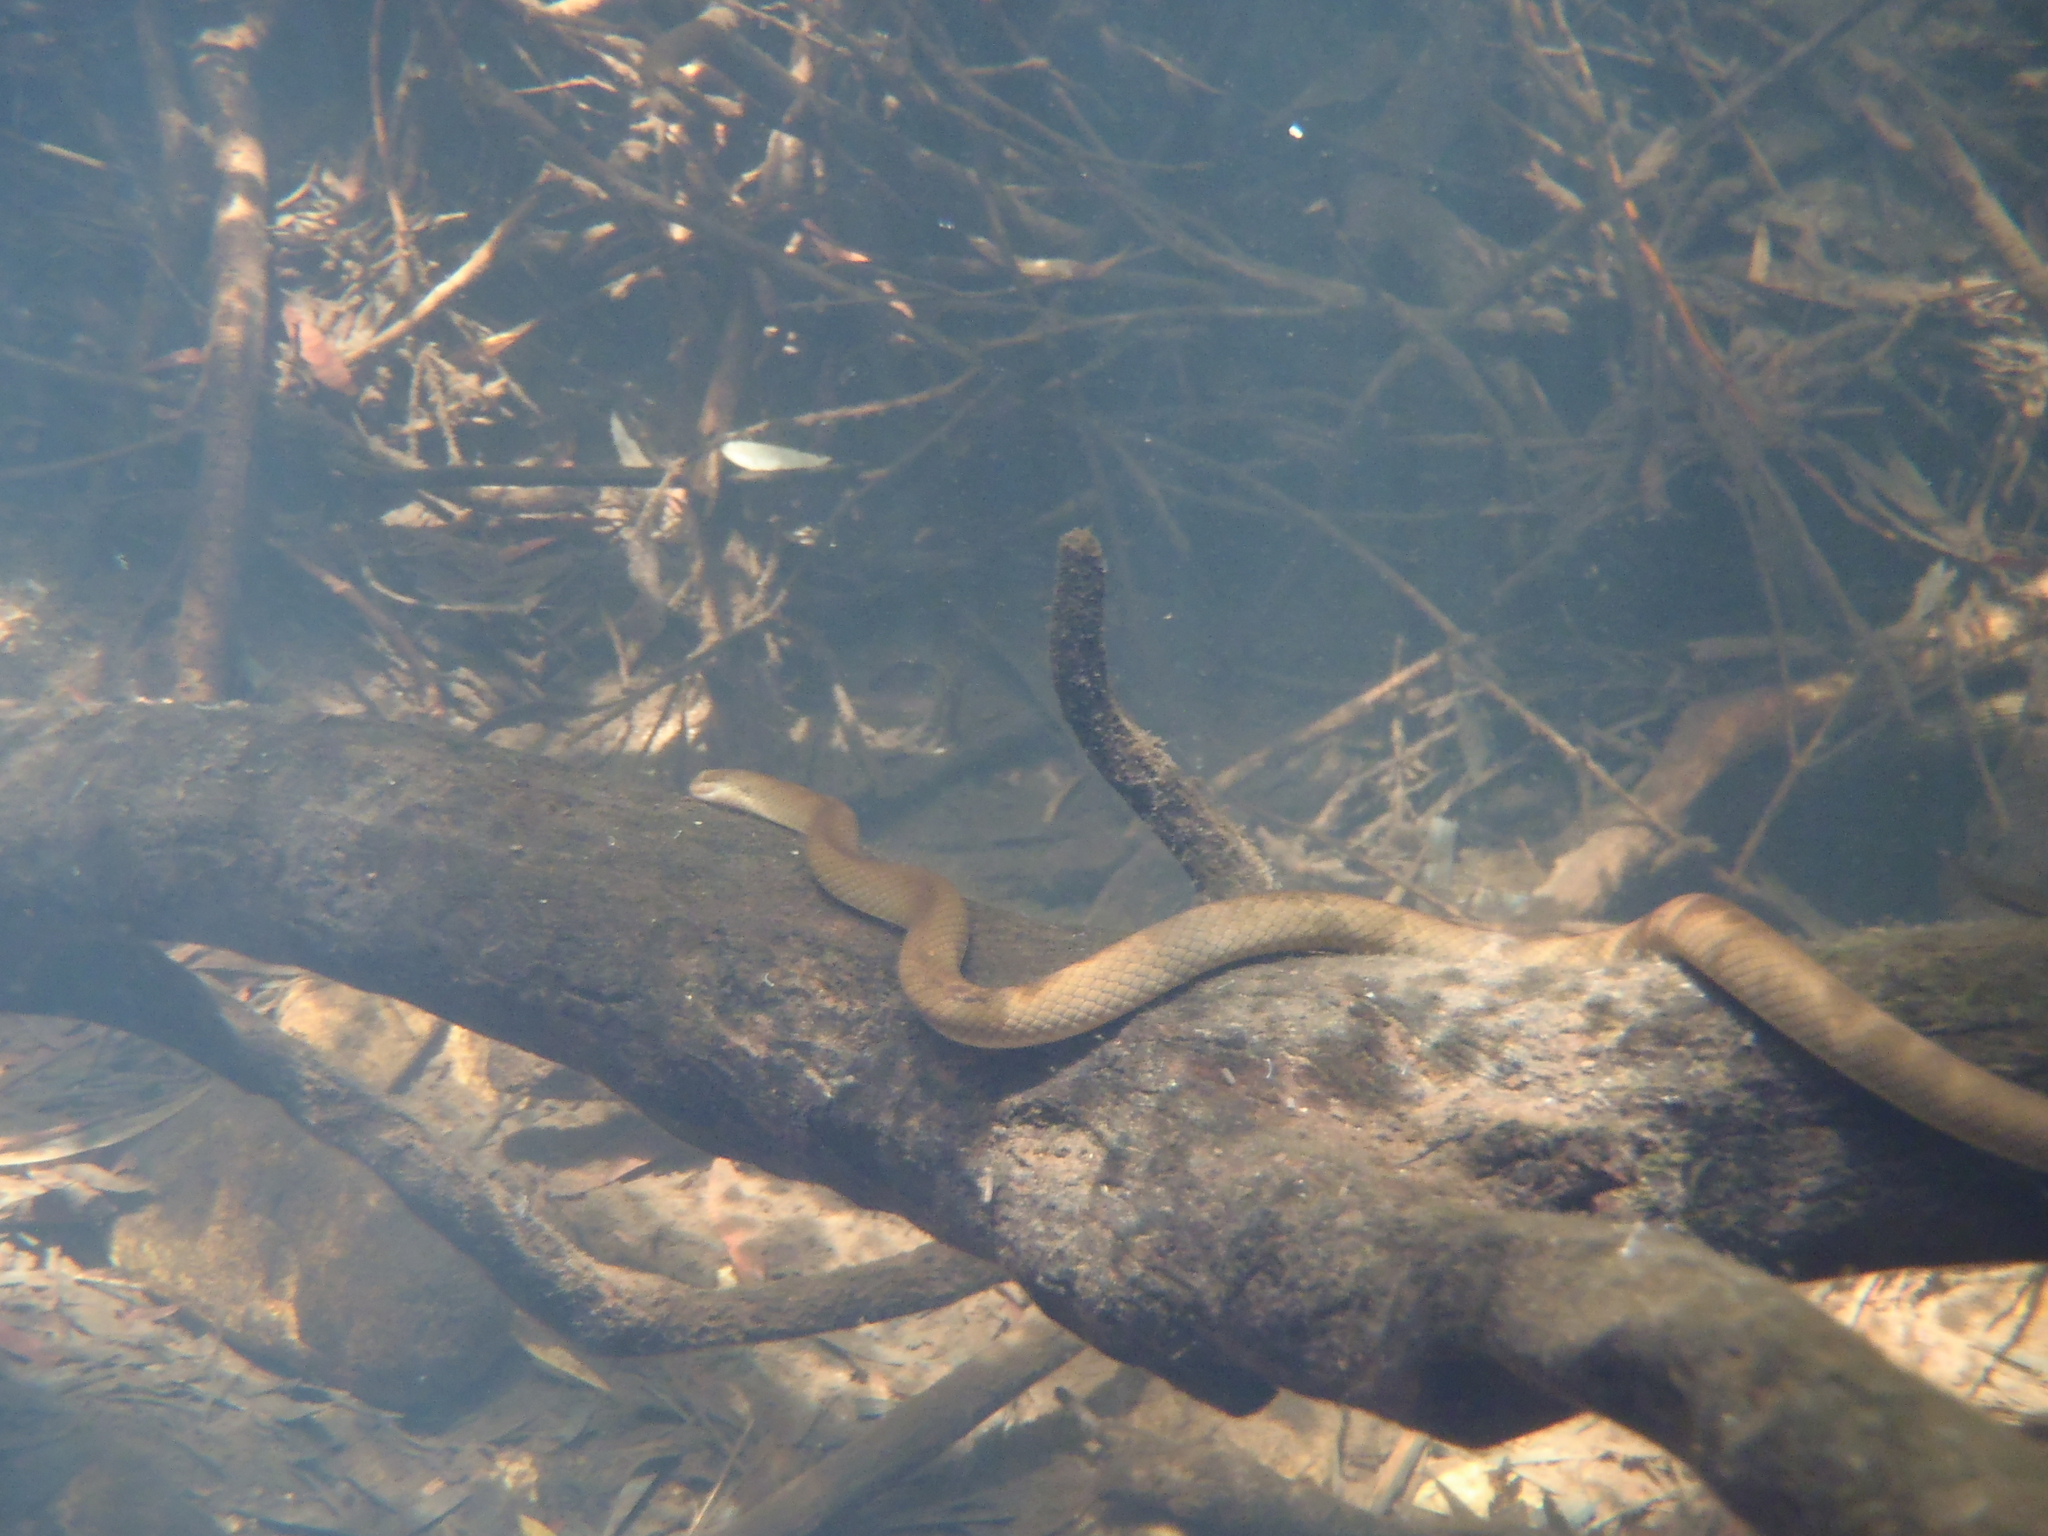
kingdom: Animalia
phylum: Chordata
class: Squamata
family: Lamprophiidae
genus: Lycodonomorphus
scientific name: Lycodonomorphus rufulus
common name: Brown water snake
